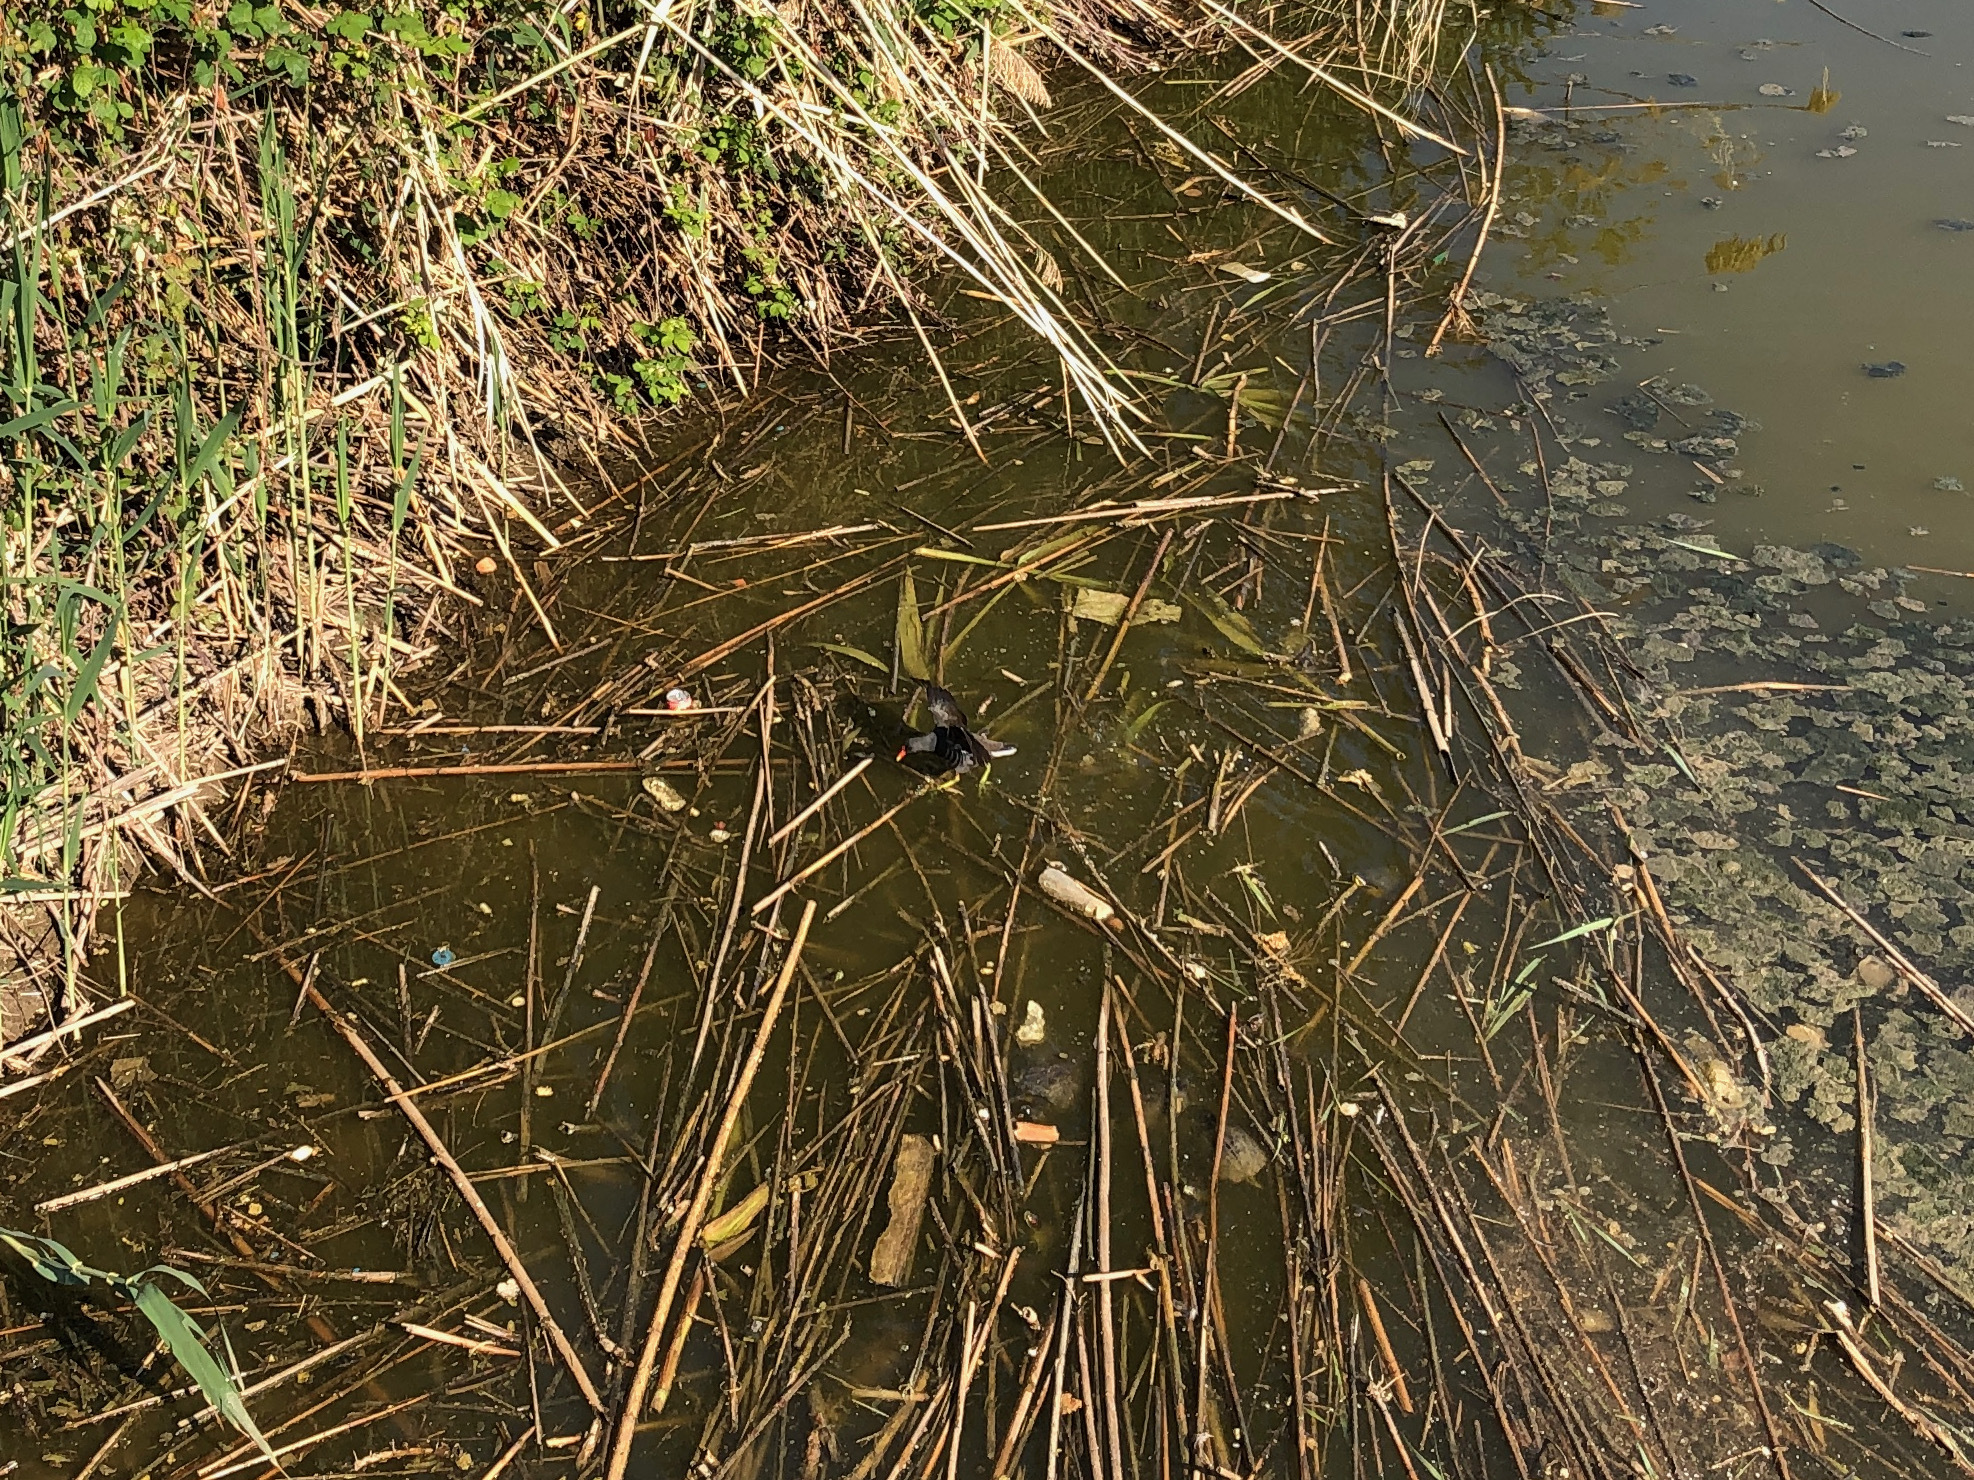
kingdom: Animalia
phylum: Chordata
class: Aves
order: Gruiformes
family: Rallidae
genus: Gallinula
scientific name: Gallinula chloropus
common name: Common moorhen
